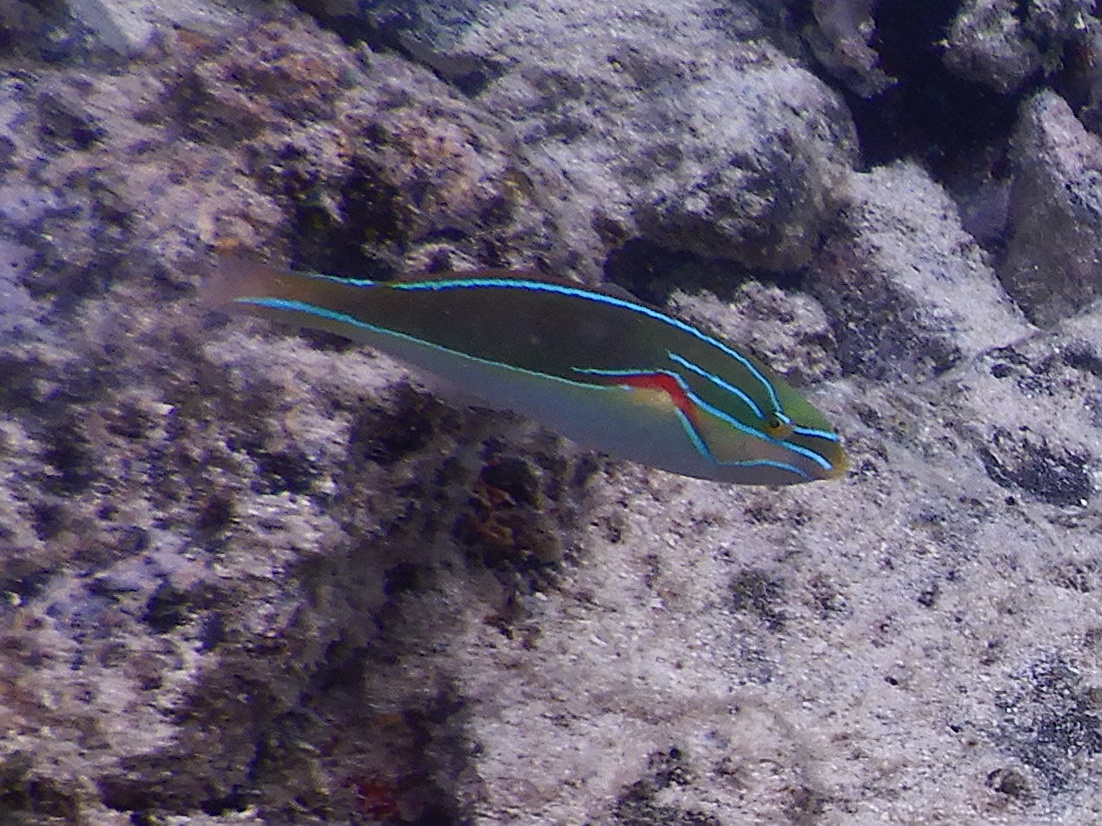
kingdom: Animalia
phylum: Chordata
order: Perciformes
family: Labridae
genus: Stethojulis
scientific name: Stethojulis bandanensis
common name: Red shoulder wrasse
